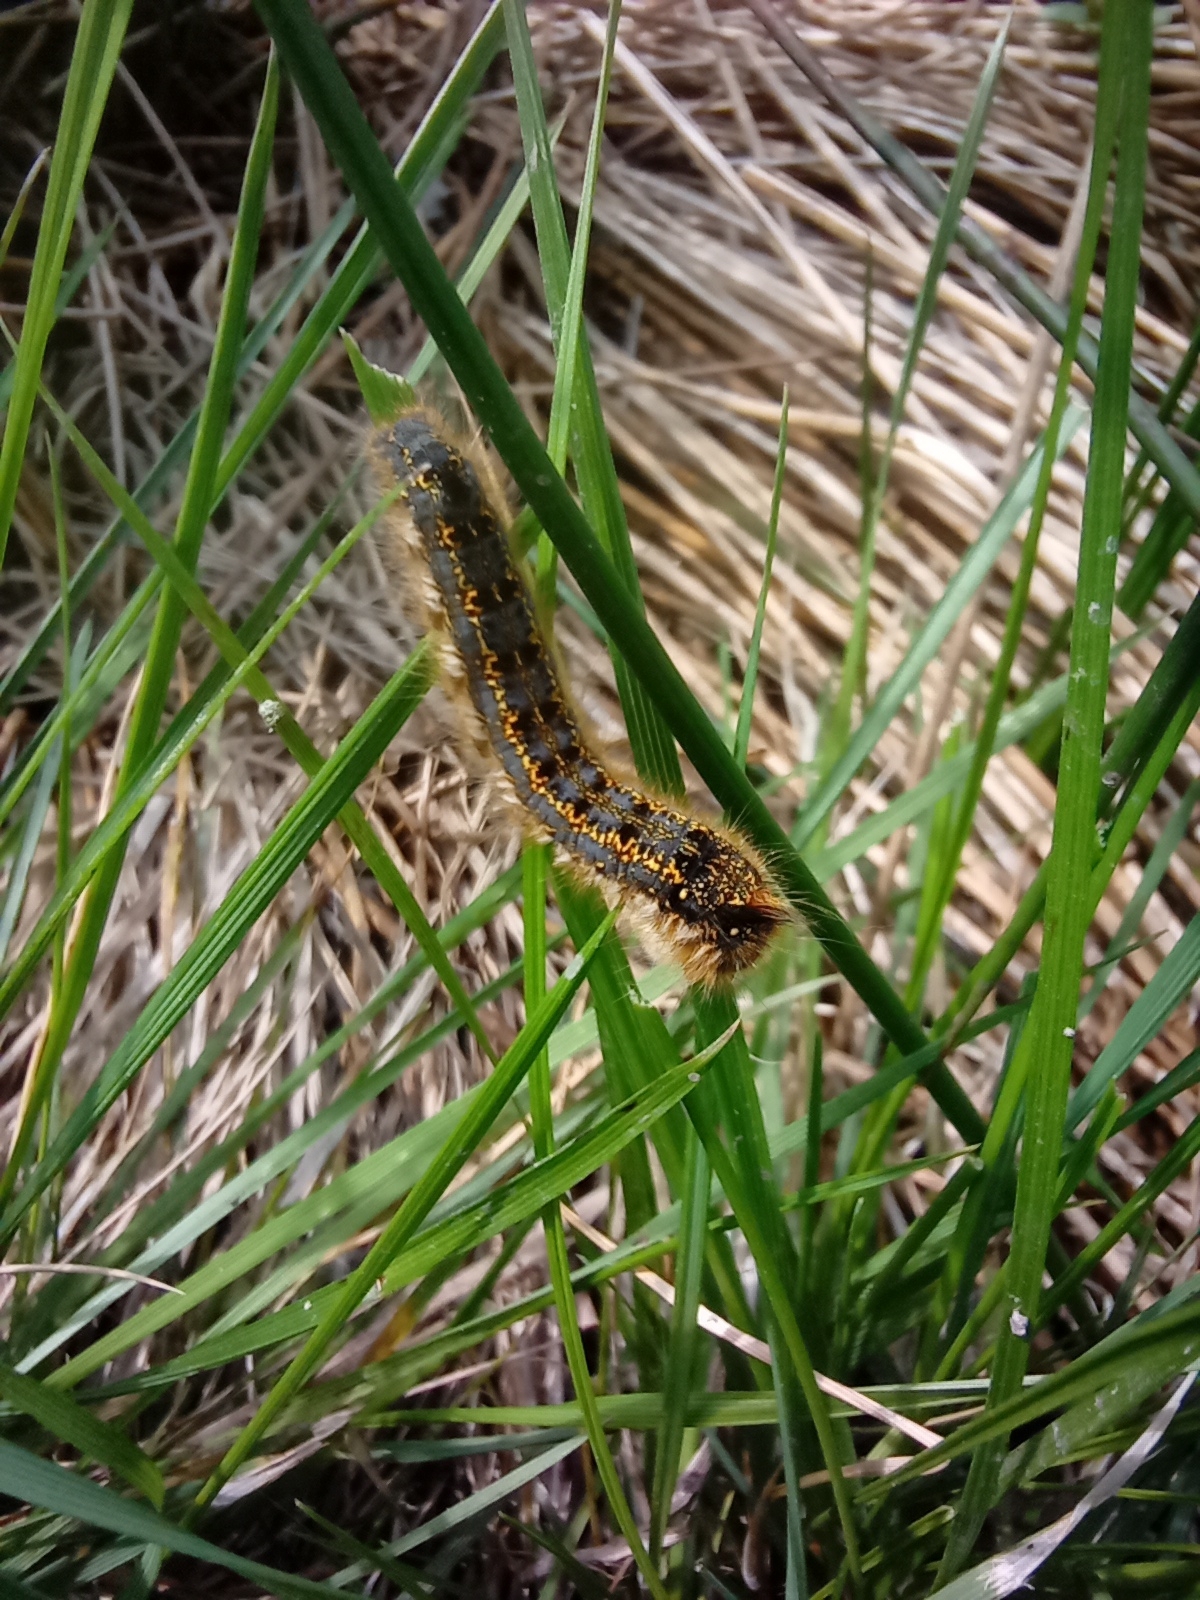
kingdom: Animalia
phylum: Arthropoda
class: Insecta
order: Lepidoptera
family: Lasiocampidae
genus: Euthrix
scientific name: Euthrix potatoria
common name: Drinker
